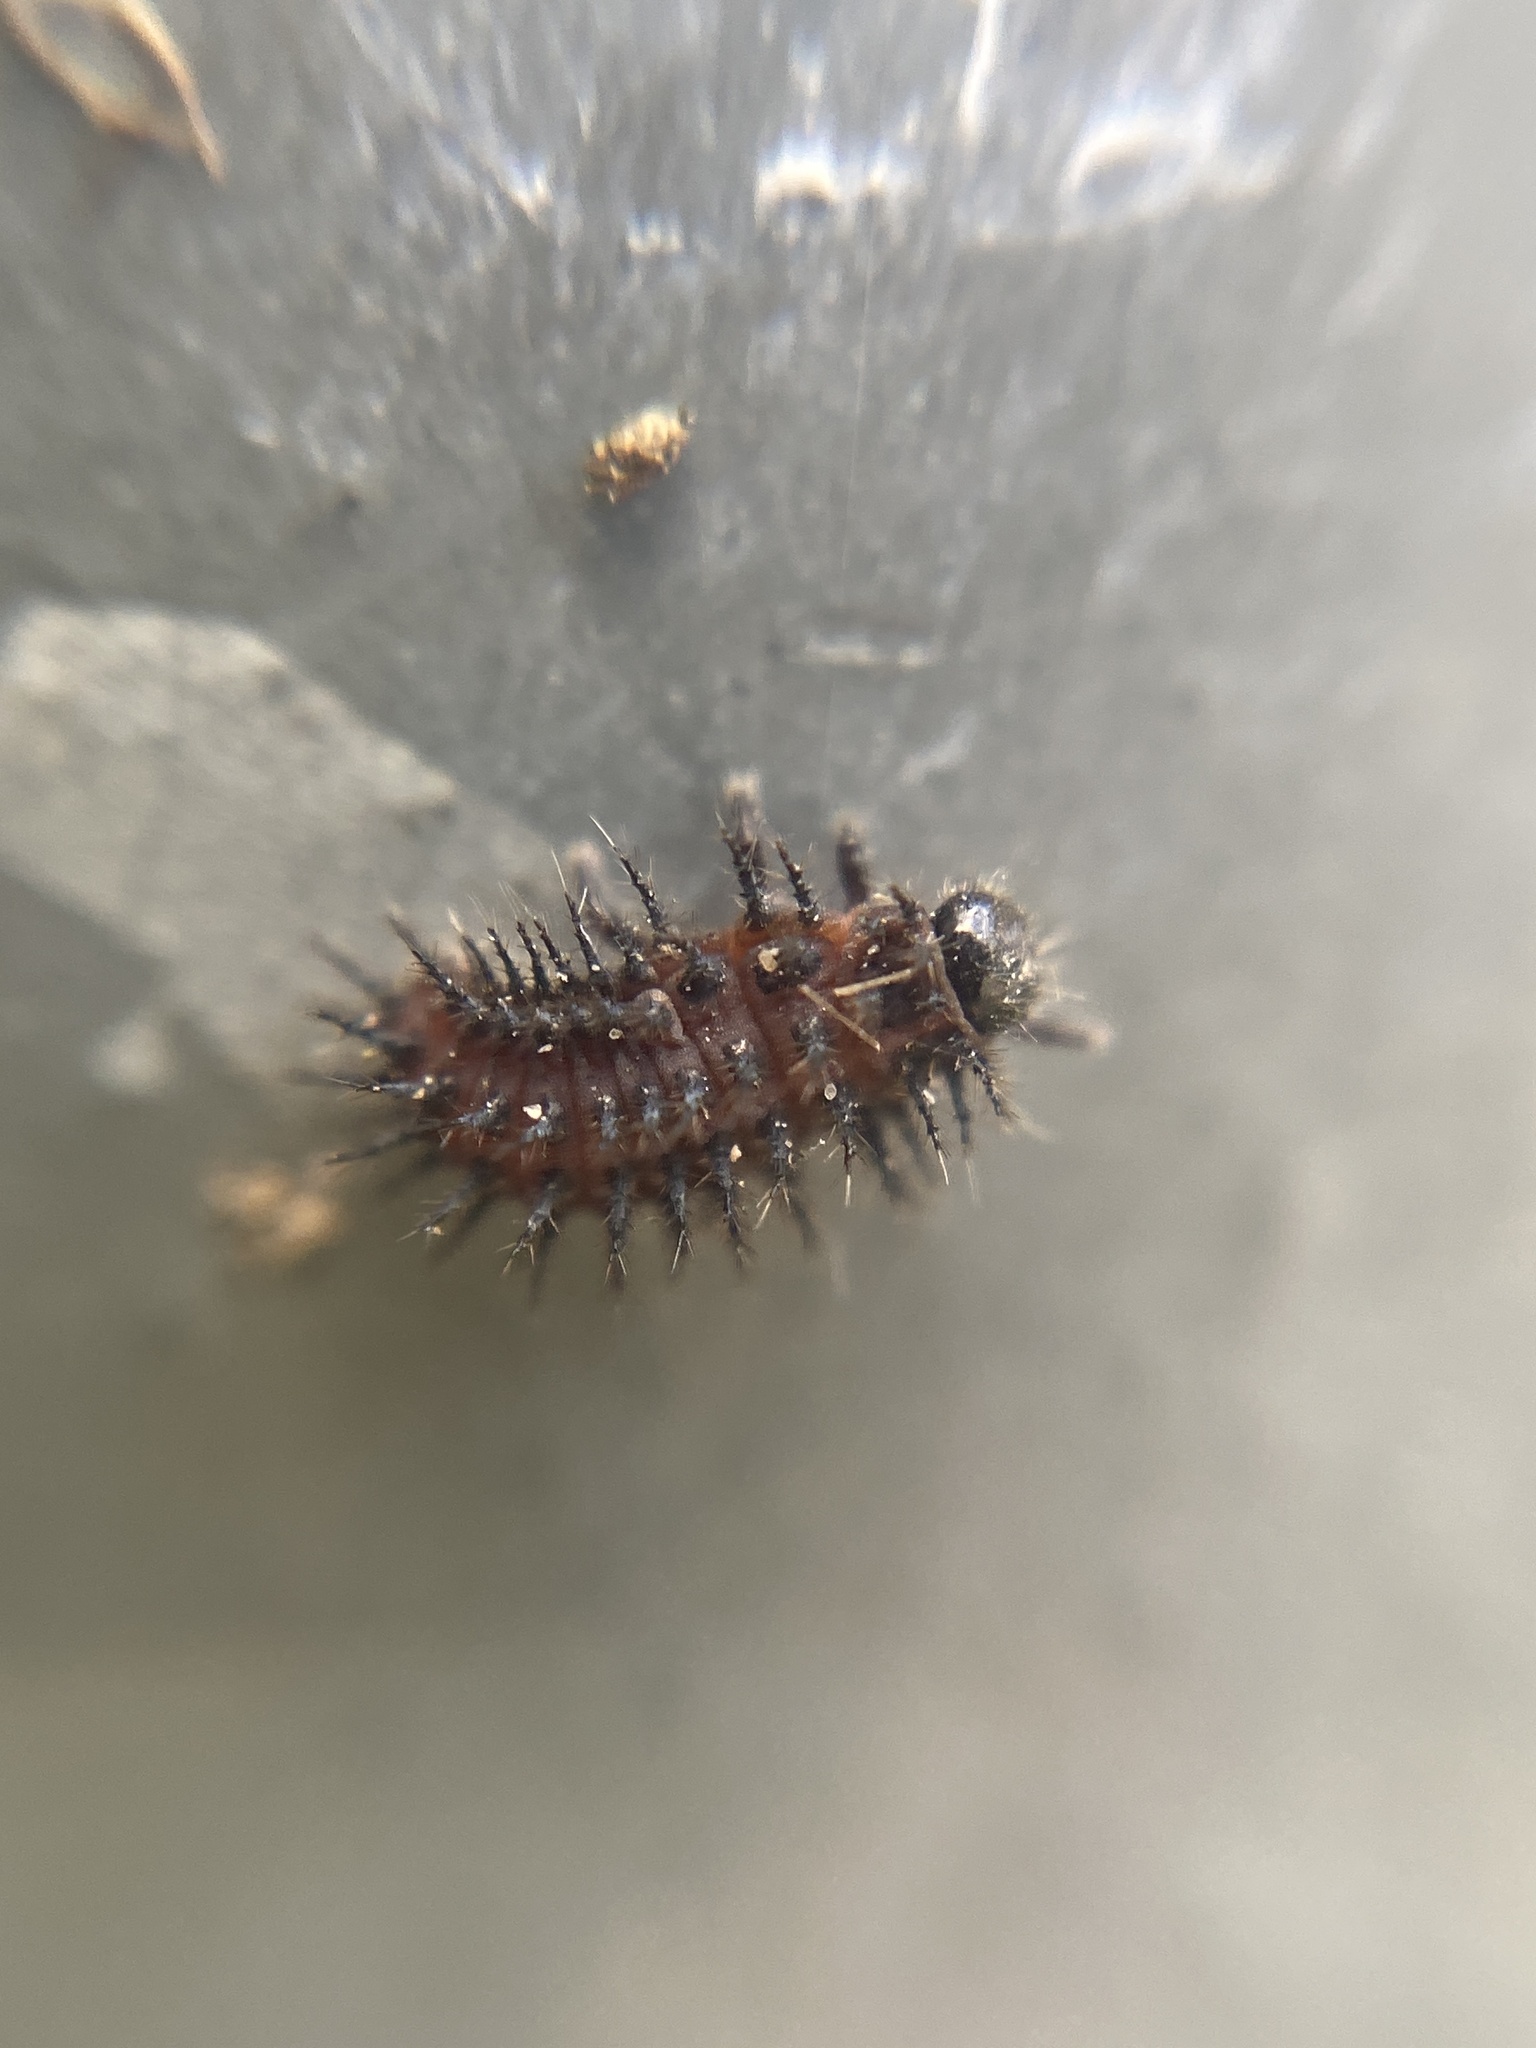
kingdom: Animalia
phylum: Arthropoda
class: Insecta
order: Coleoptera
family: Coccinellidae
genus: Chilocorus
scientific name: Chilocorus renipustulatus
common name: Kidney-spot ladybird
